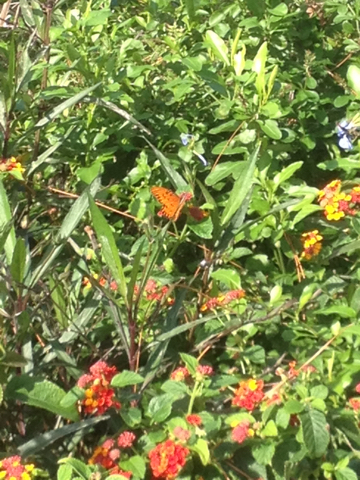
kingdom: Animalia
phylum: Arthropoda
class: Insecta
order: Lepidoptera
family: Nymphalidae
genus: Dione
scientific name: Dione vanillae
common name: Gulf fritillary
